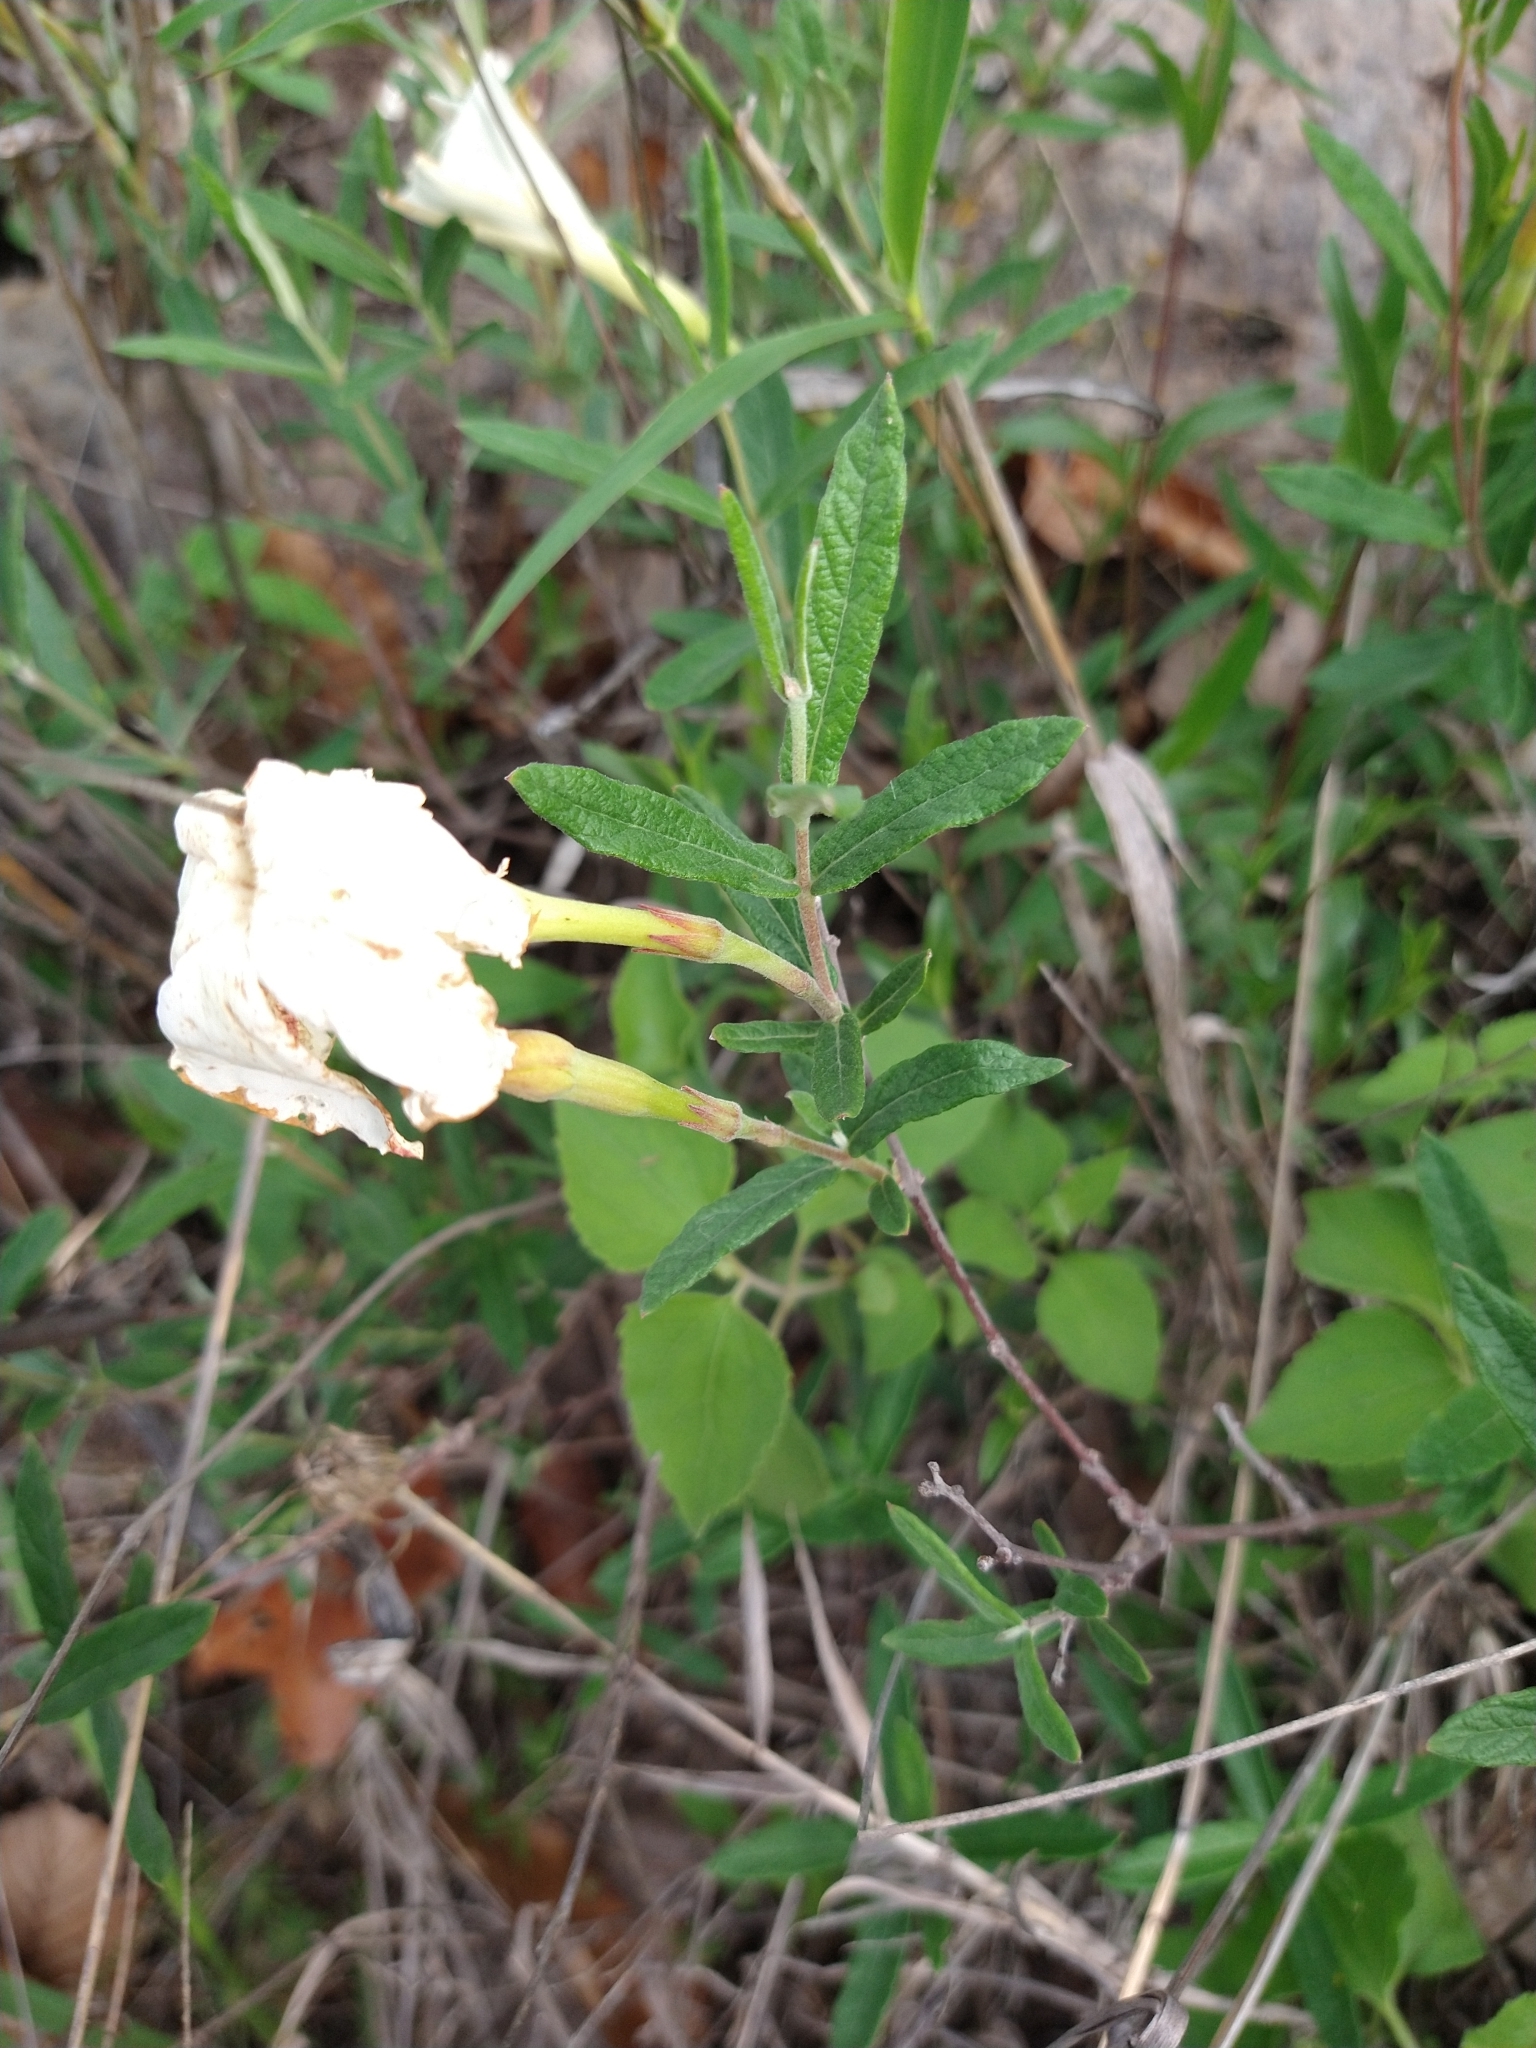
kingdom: Plantae
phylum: Tracheophyta
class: Magnoliopsida
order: Gentianales
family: Apocynaceae
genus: Mandevilla
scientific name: Mandevilla hypoleuca
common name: Davis mountain rocktrumpet
